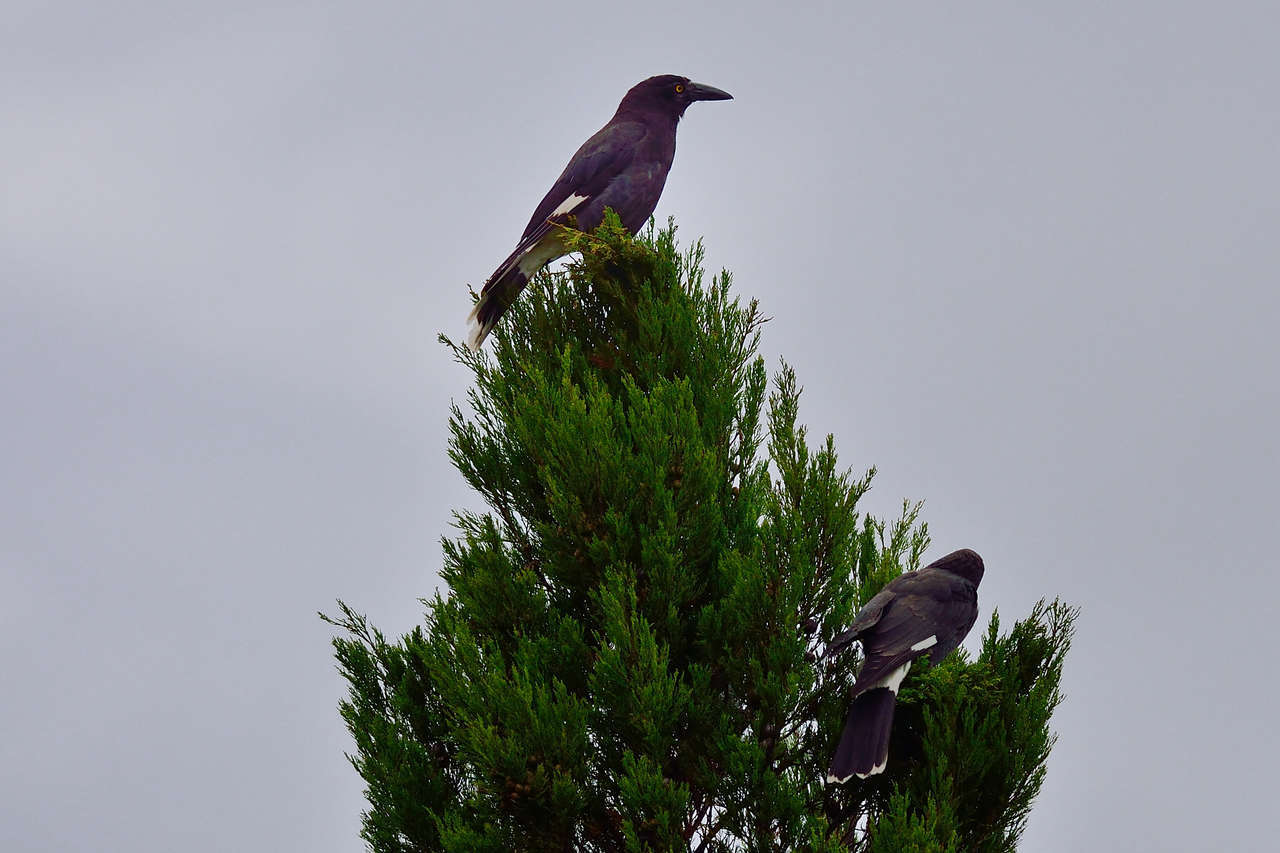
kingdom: Animalia
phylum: Chordata
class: Aves
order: Passeriformes
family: Cracticidae
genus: Strepera
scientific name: Strepera graculina
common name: Pied currawong
